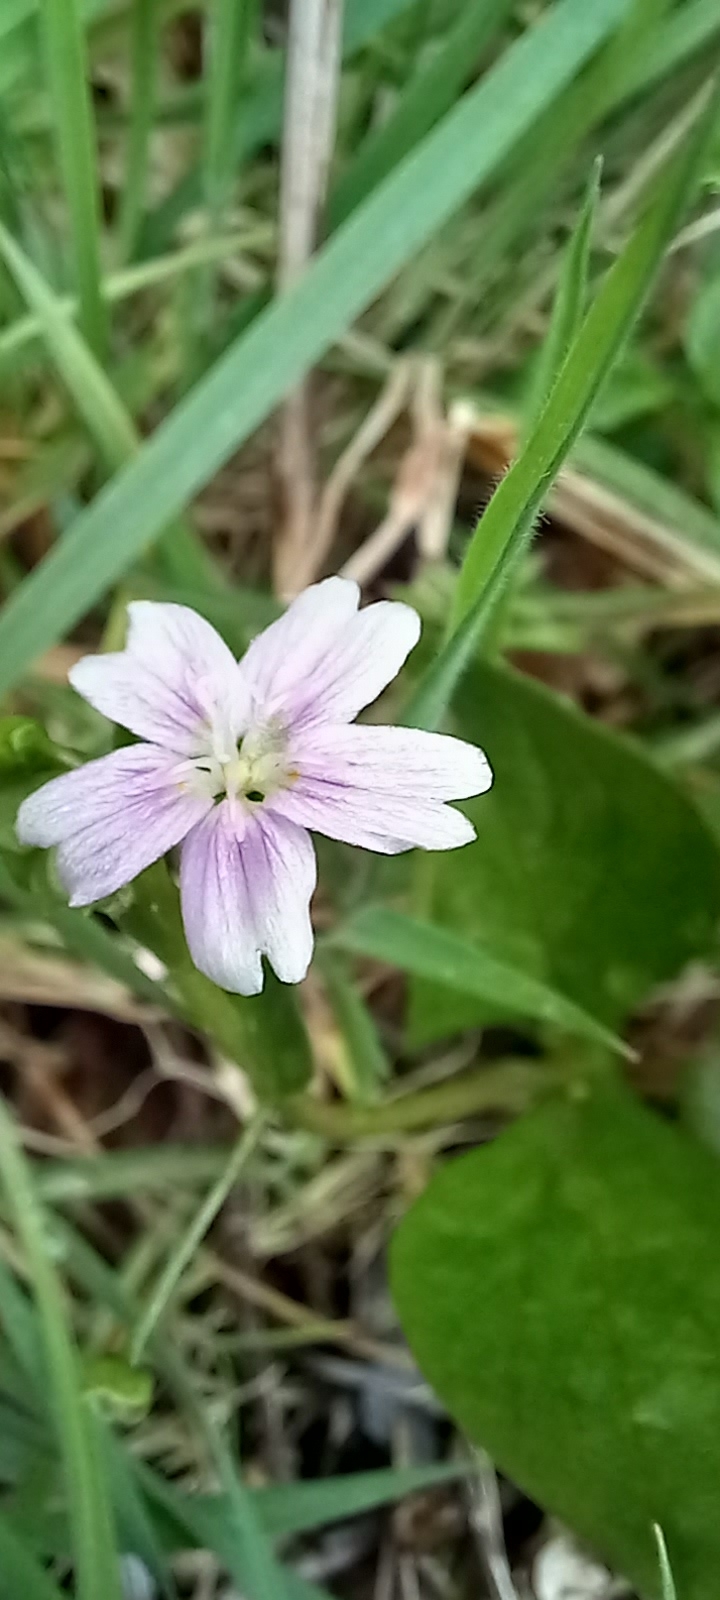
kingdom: Plantae
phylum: Tracheophyta
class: Magnoliopsida
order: Caryophyllales
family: Montiaceae
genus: Claytonia
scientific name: Claytonia sibirica
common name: Pink purslane
